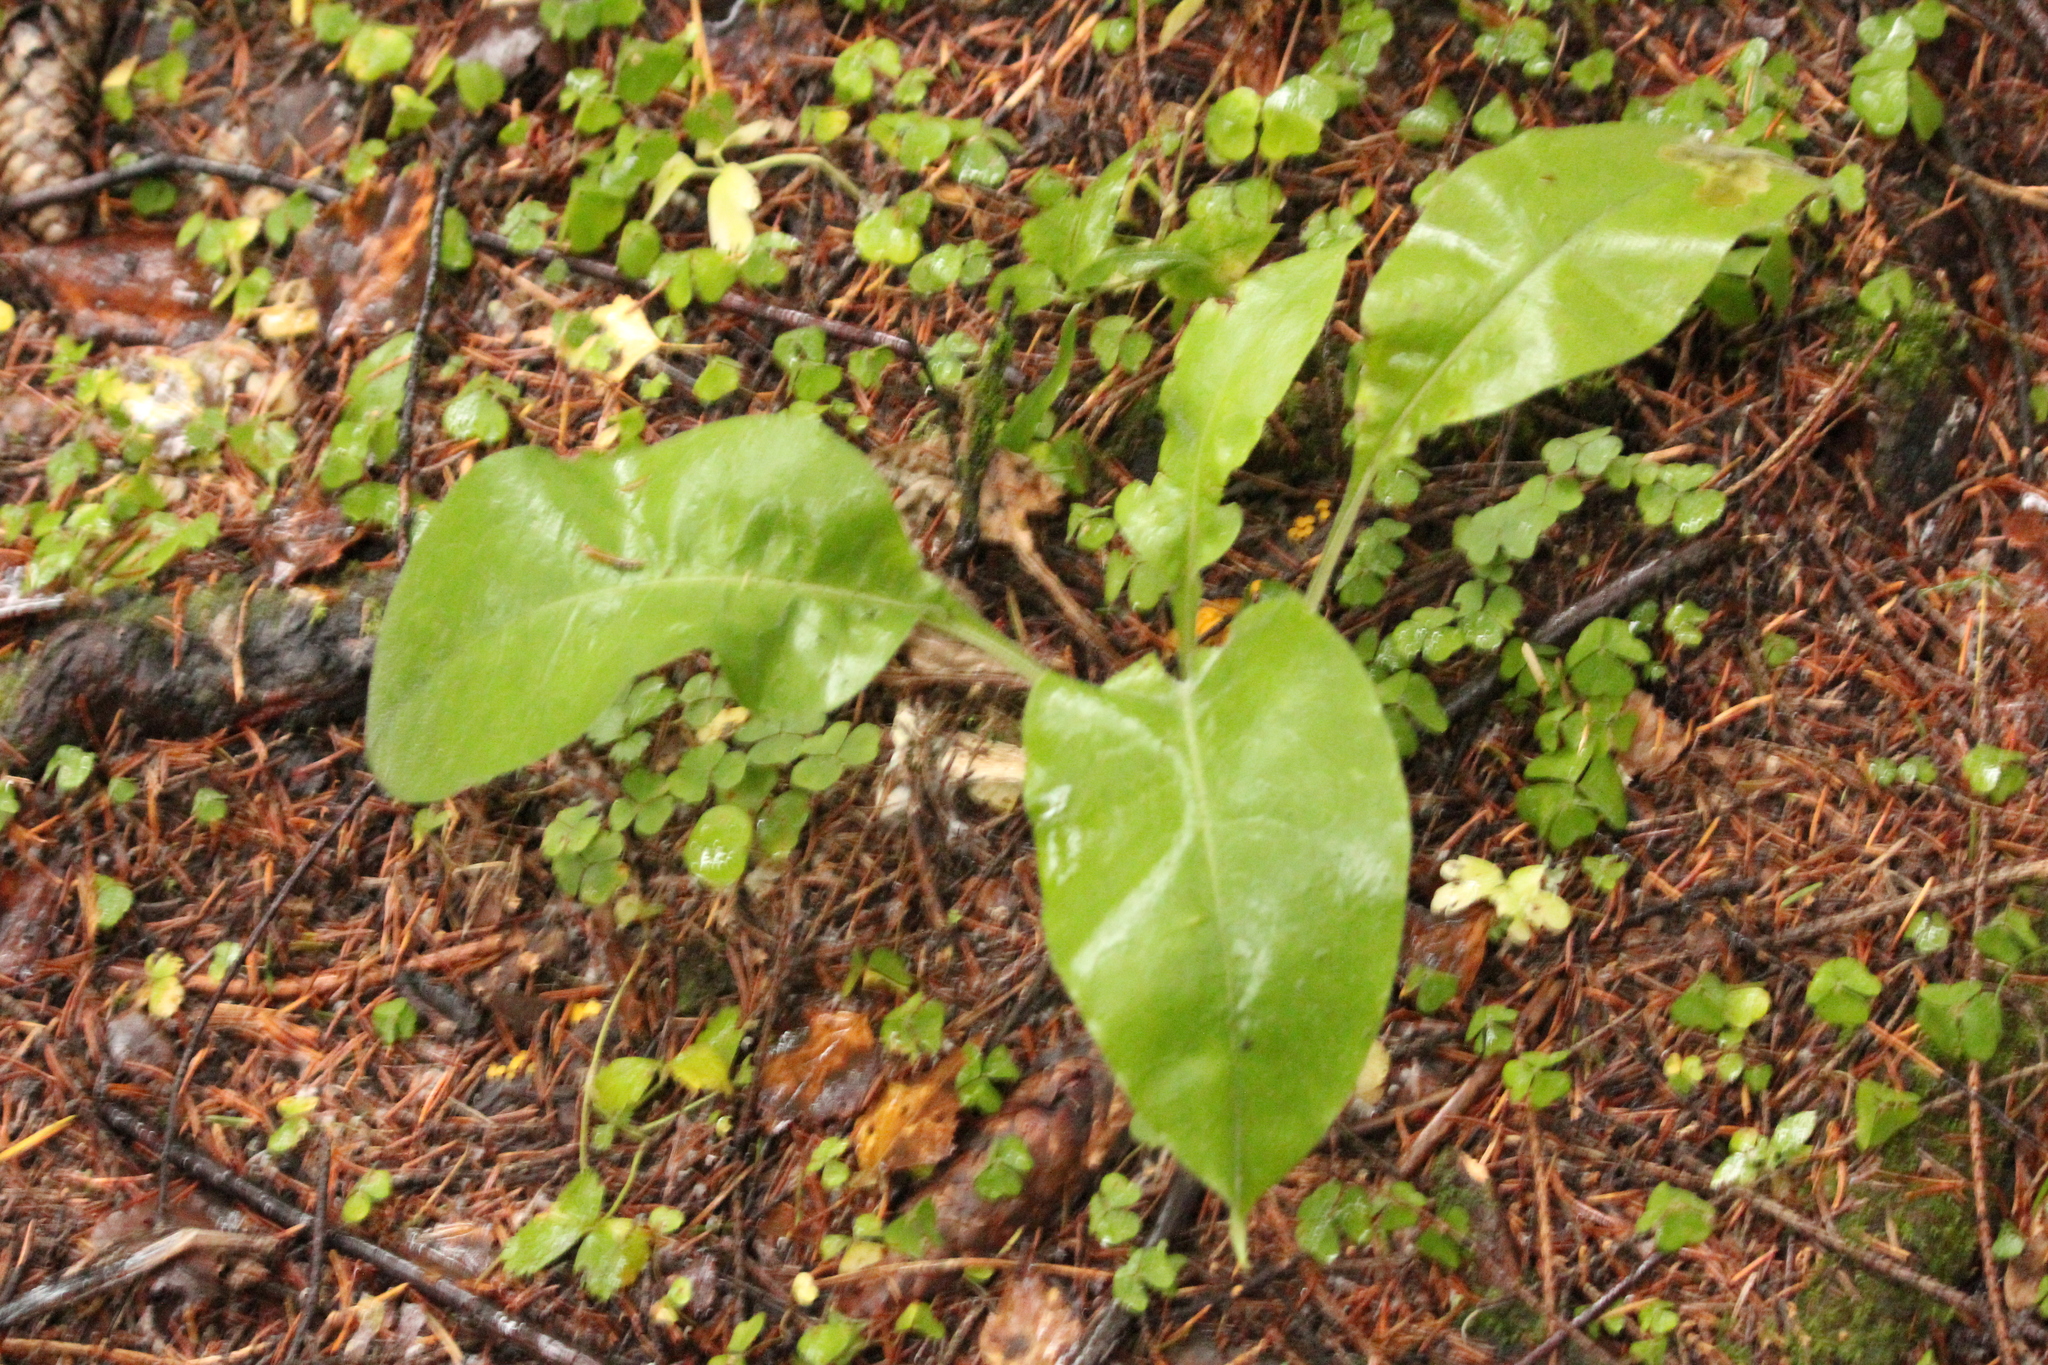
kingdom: Plantae
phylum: Tracheophyta
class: Magnoliopsida
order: Boraginales
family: Boraginaceae
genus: Pulmonaria
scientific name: Pulmonaria mollis
